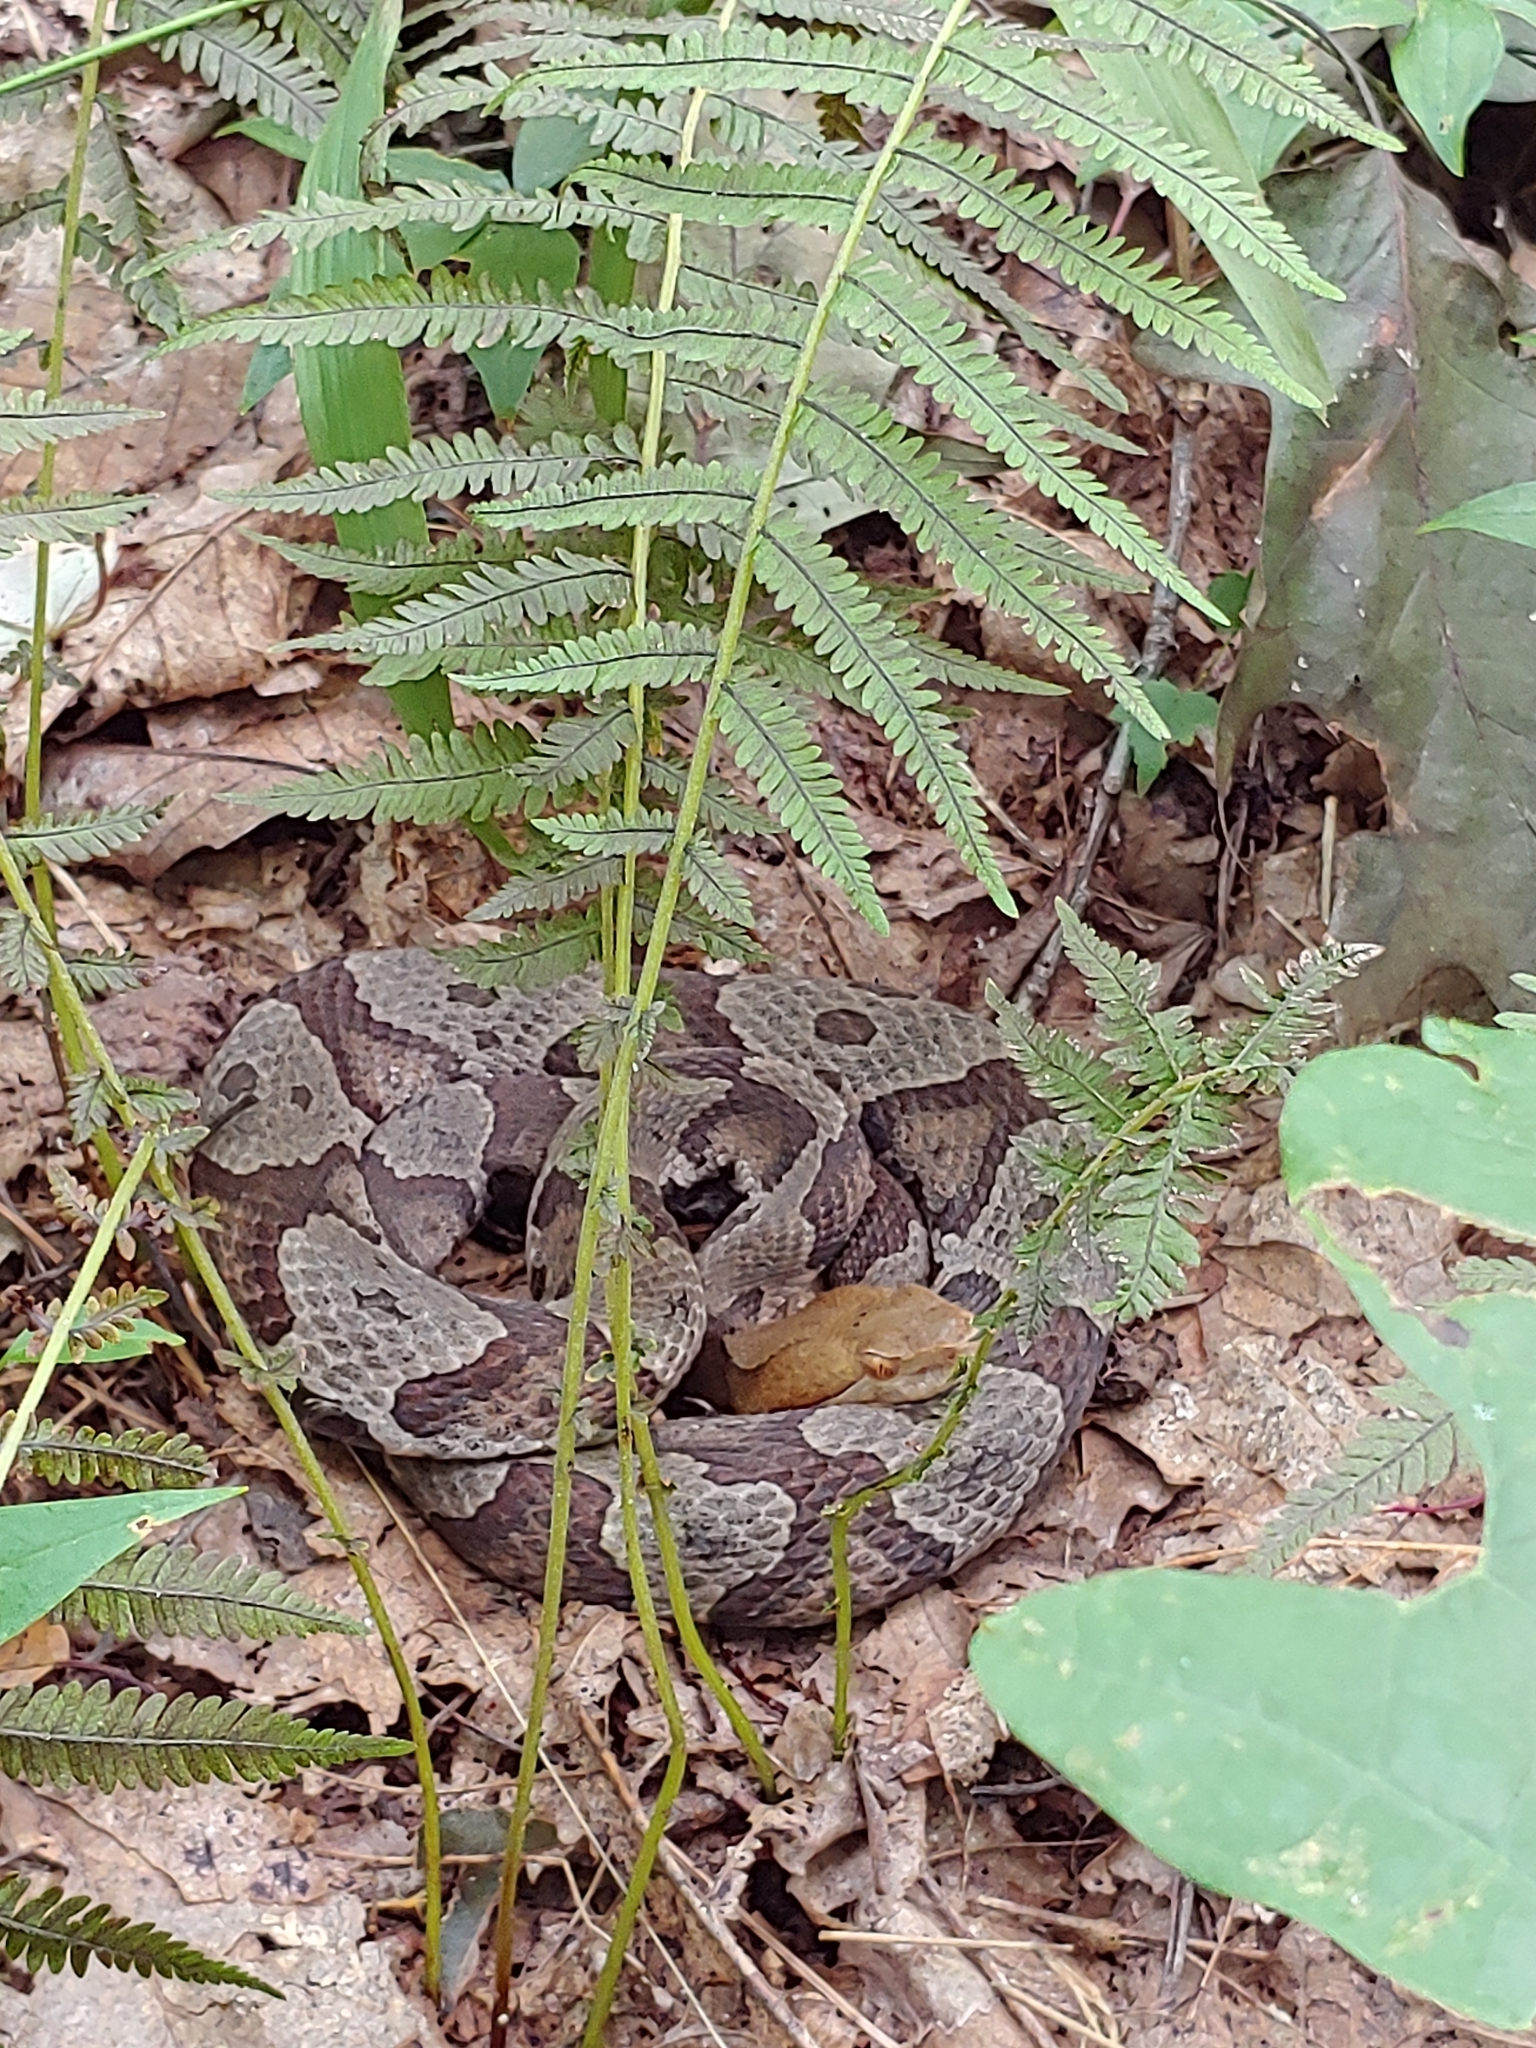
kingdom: Animalia
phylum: Chordata
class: Squamata
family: Viperidae
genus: Agkistrodon
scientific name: Agkistrodon contortrix
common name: Northern copperhead
